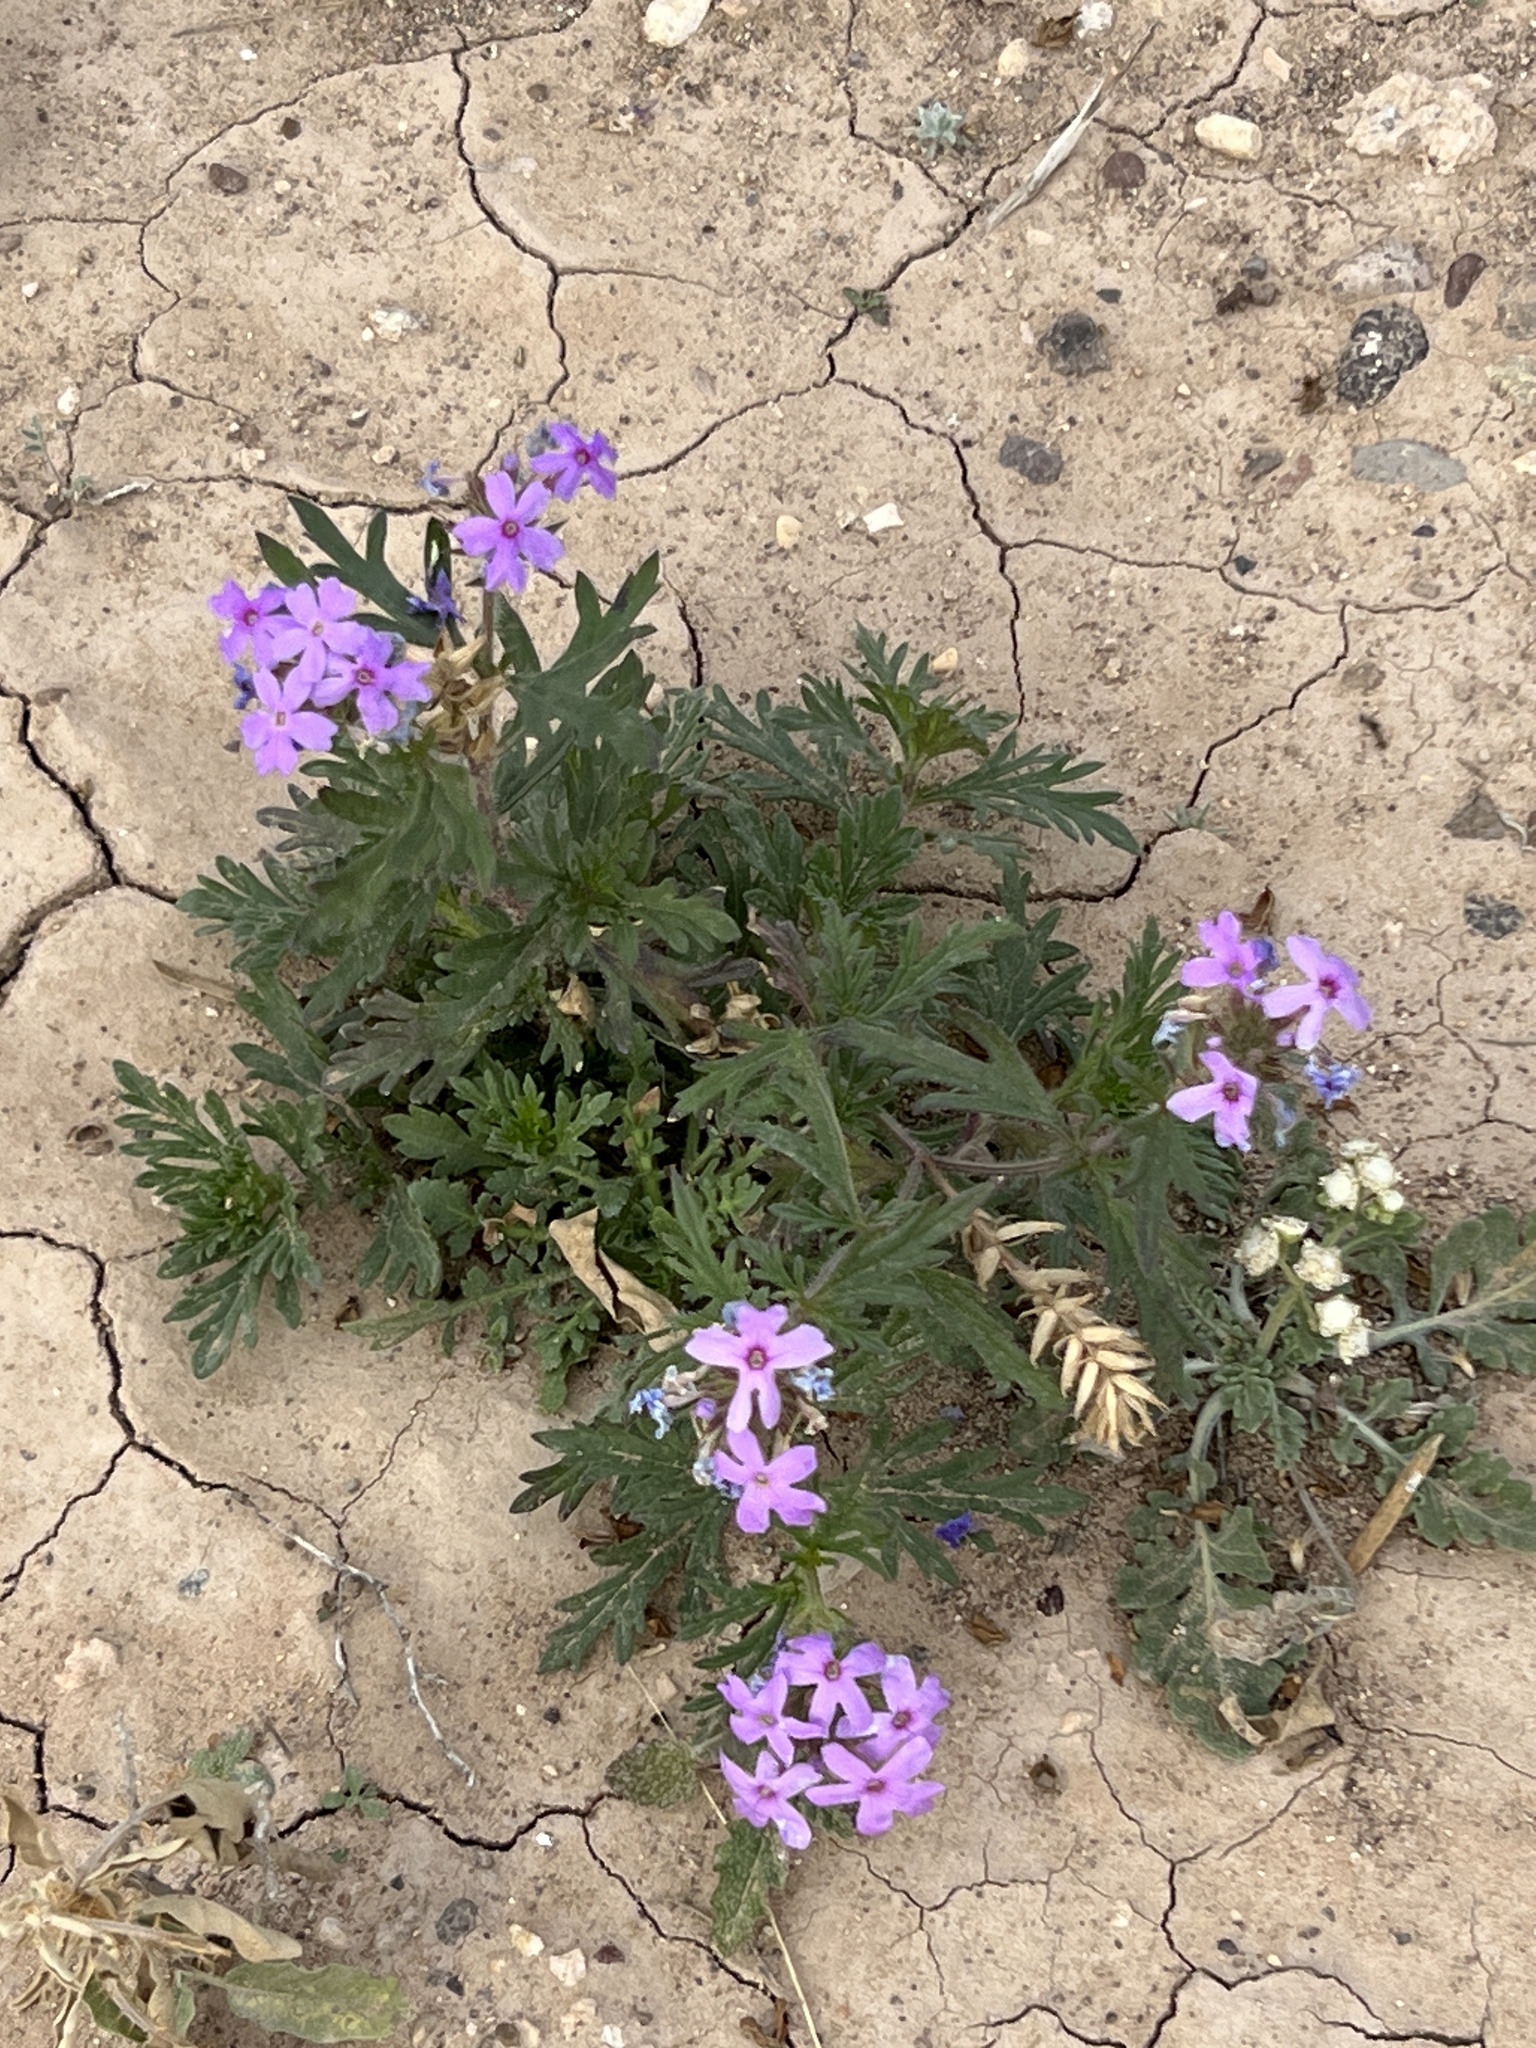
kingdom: Plantae
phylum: Tracheophyta
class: Magnoliopsida
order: Lamiales
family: Verbenaceae
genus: Verbena
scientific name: Verbena bipinnatifida
